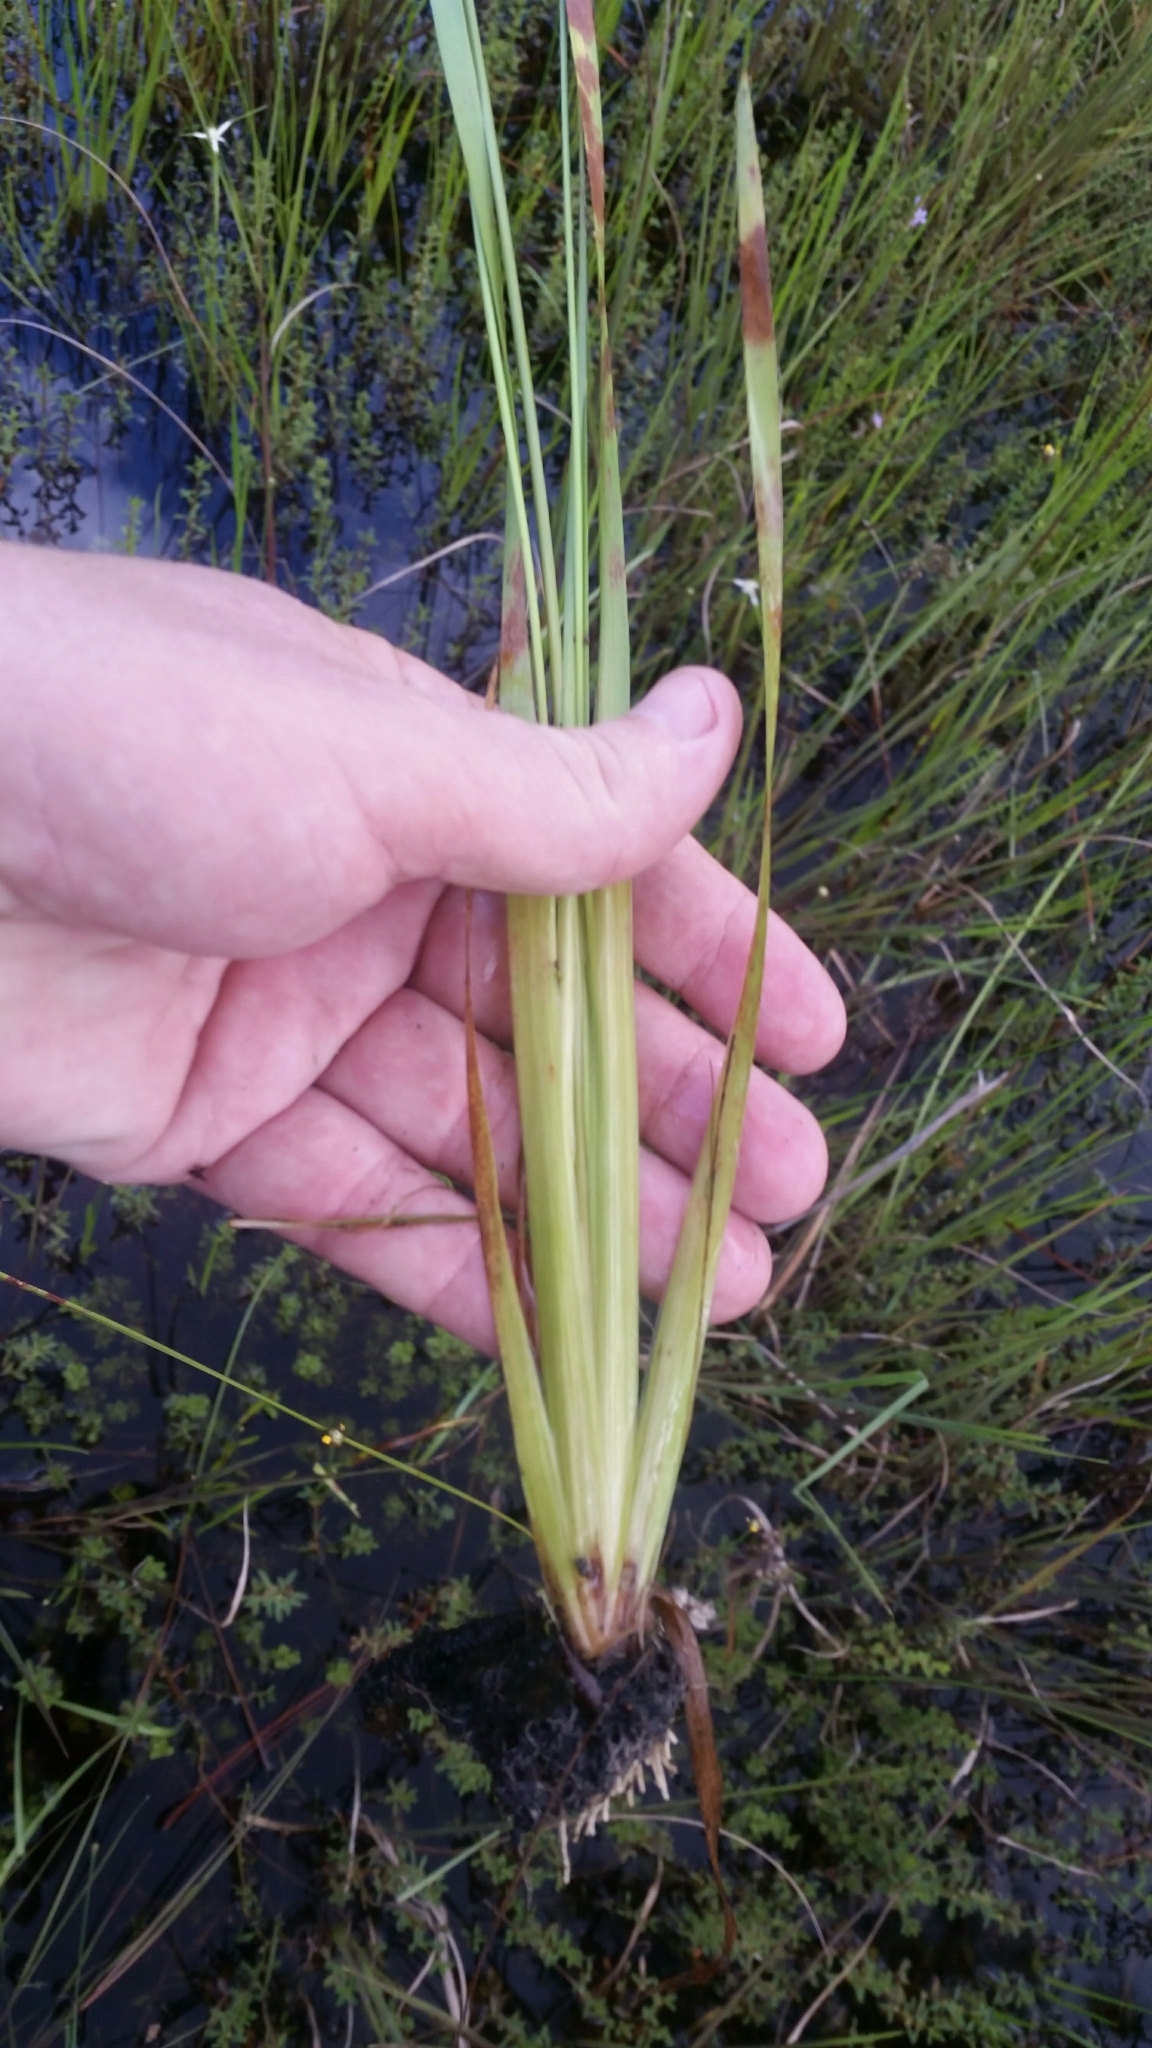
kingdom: Plantae
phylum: Tracheophyta
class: Liliopsida
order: Poales
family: Xyridaceae
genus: Xyris
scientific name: Xyris jupicai
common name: Richard's yelloweyed grass
